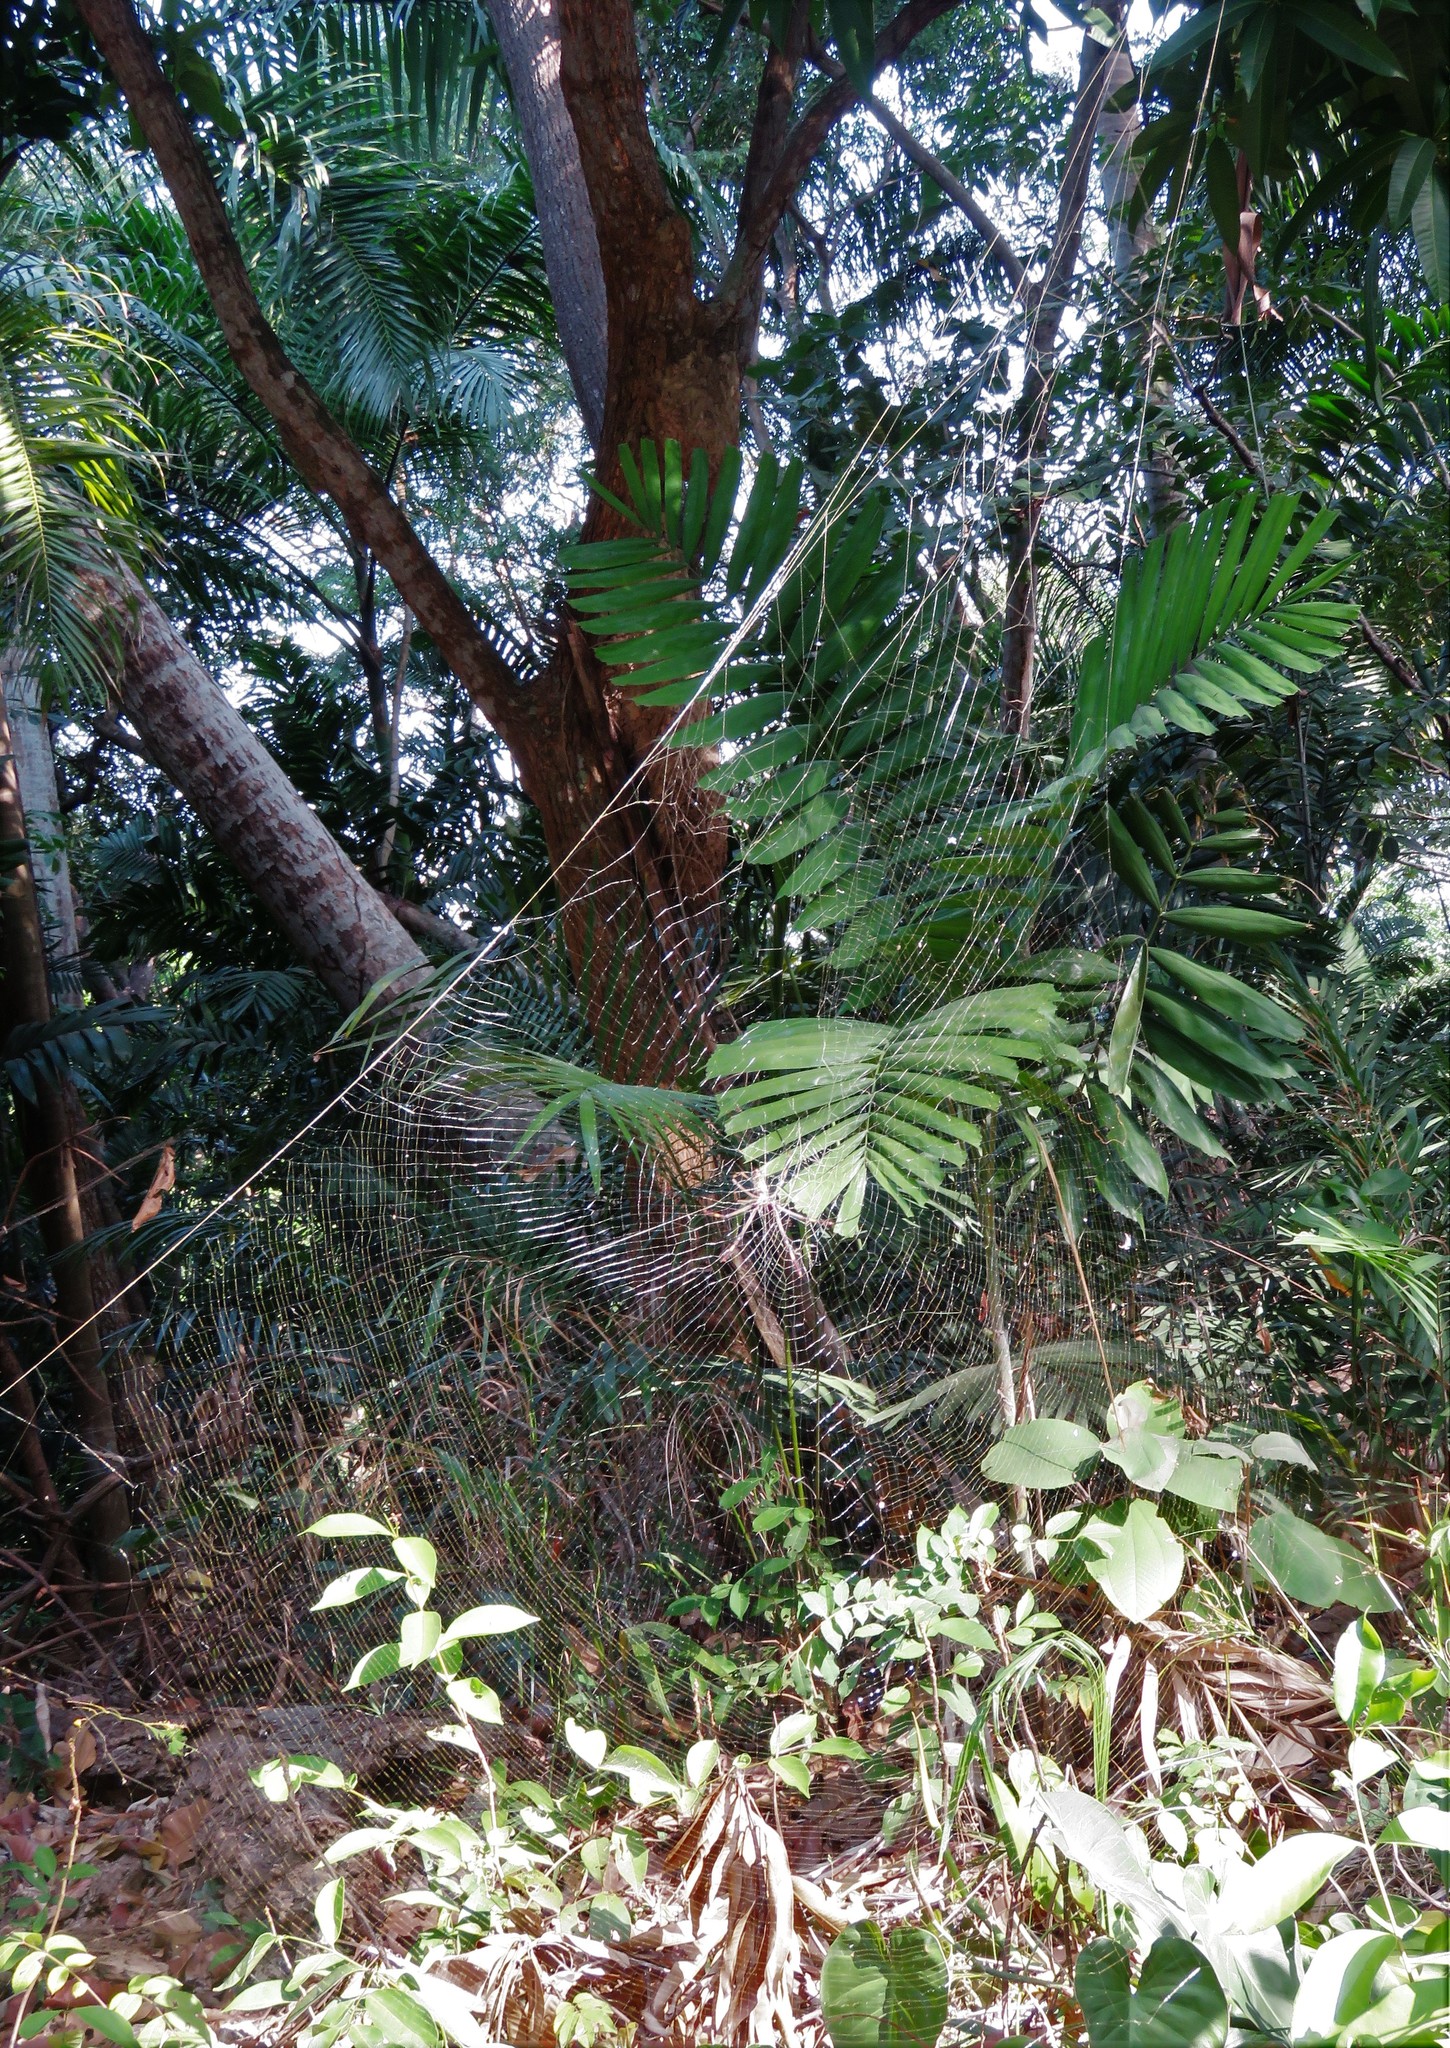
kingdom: Animalia
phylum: Arthropoda
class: Arachnida
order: Araneae
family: Araneidae
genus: Trichonephila
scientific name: Trichonephila clavipes
